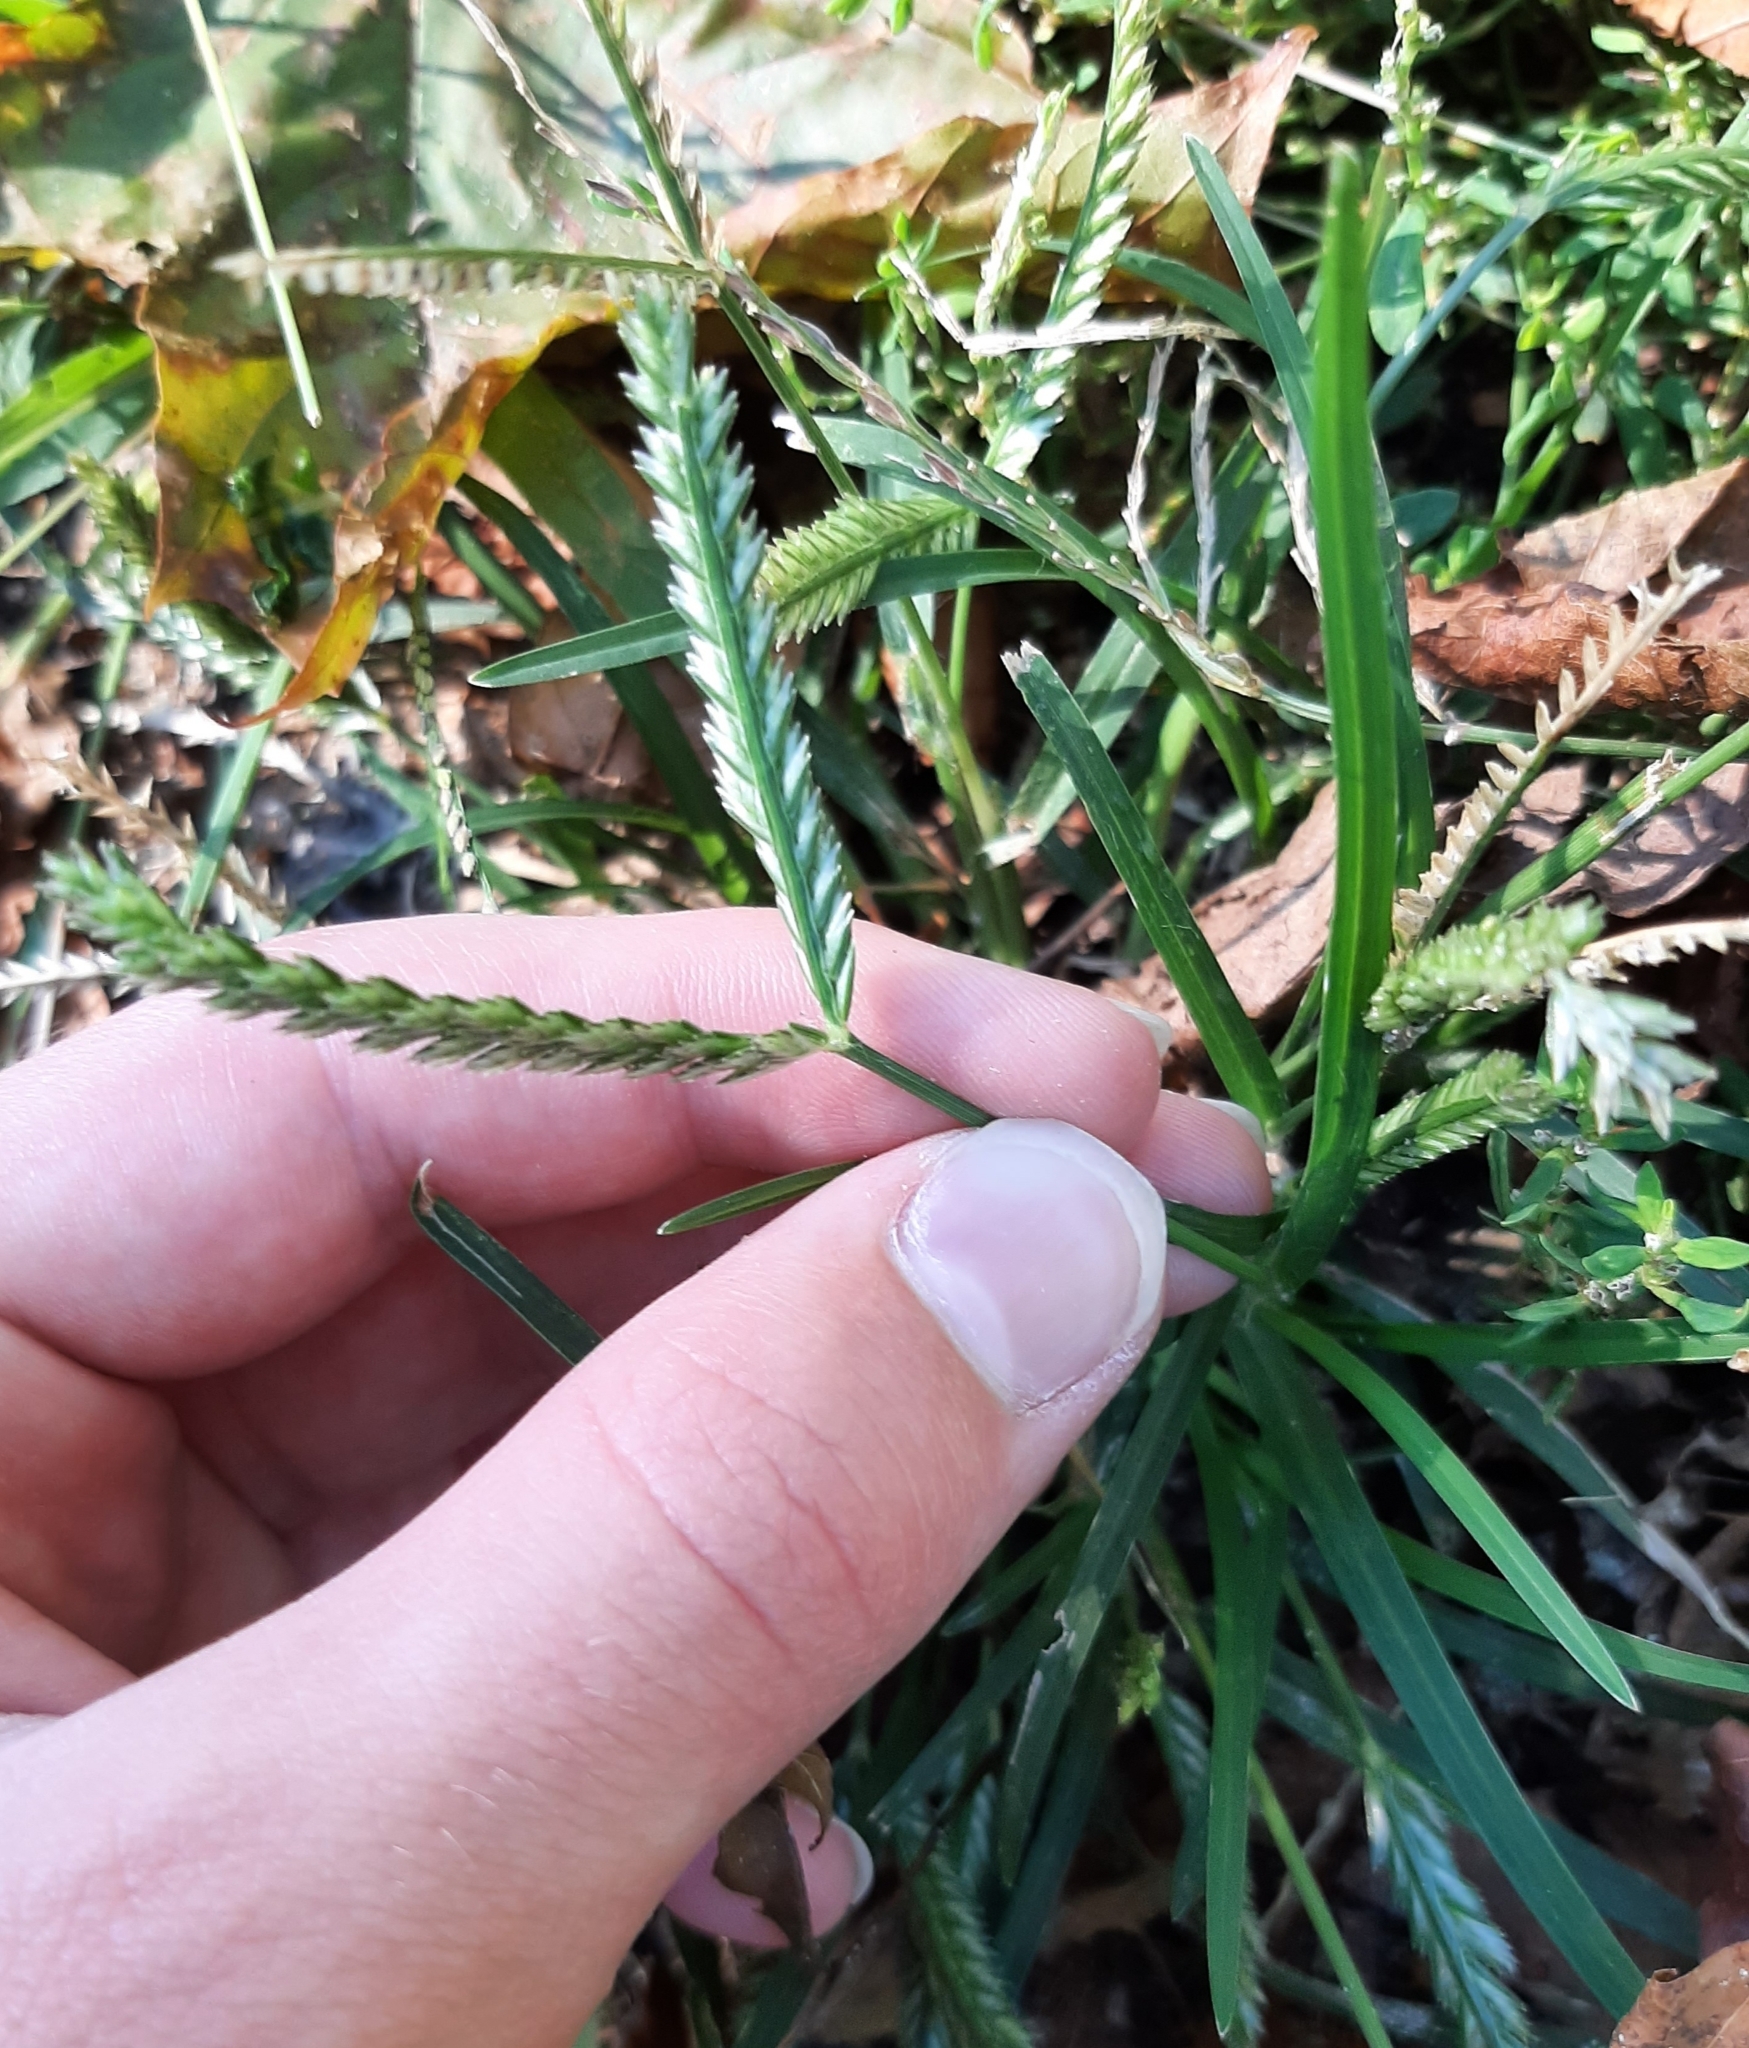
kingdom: Plantae
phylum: Tracheophyta
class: Liliopsida
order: Poales
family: Poaceae
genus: Eleusine
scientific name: Eleusine indica
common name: Yard-grass
